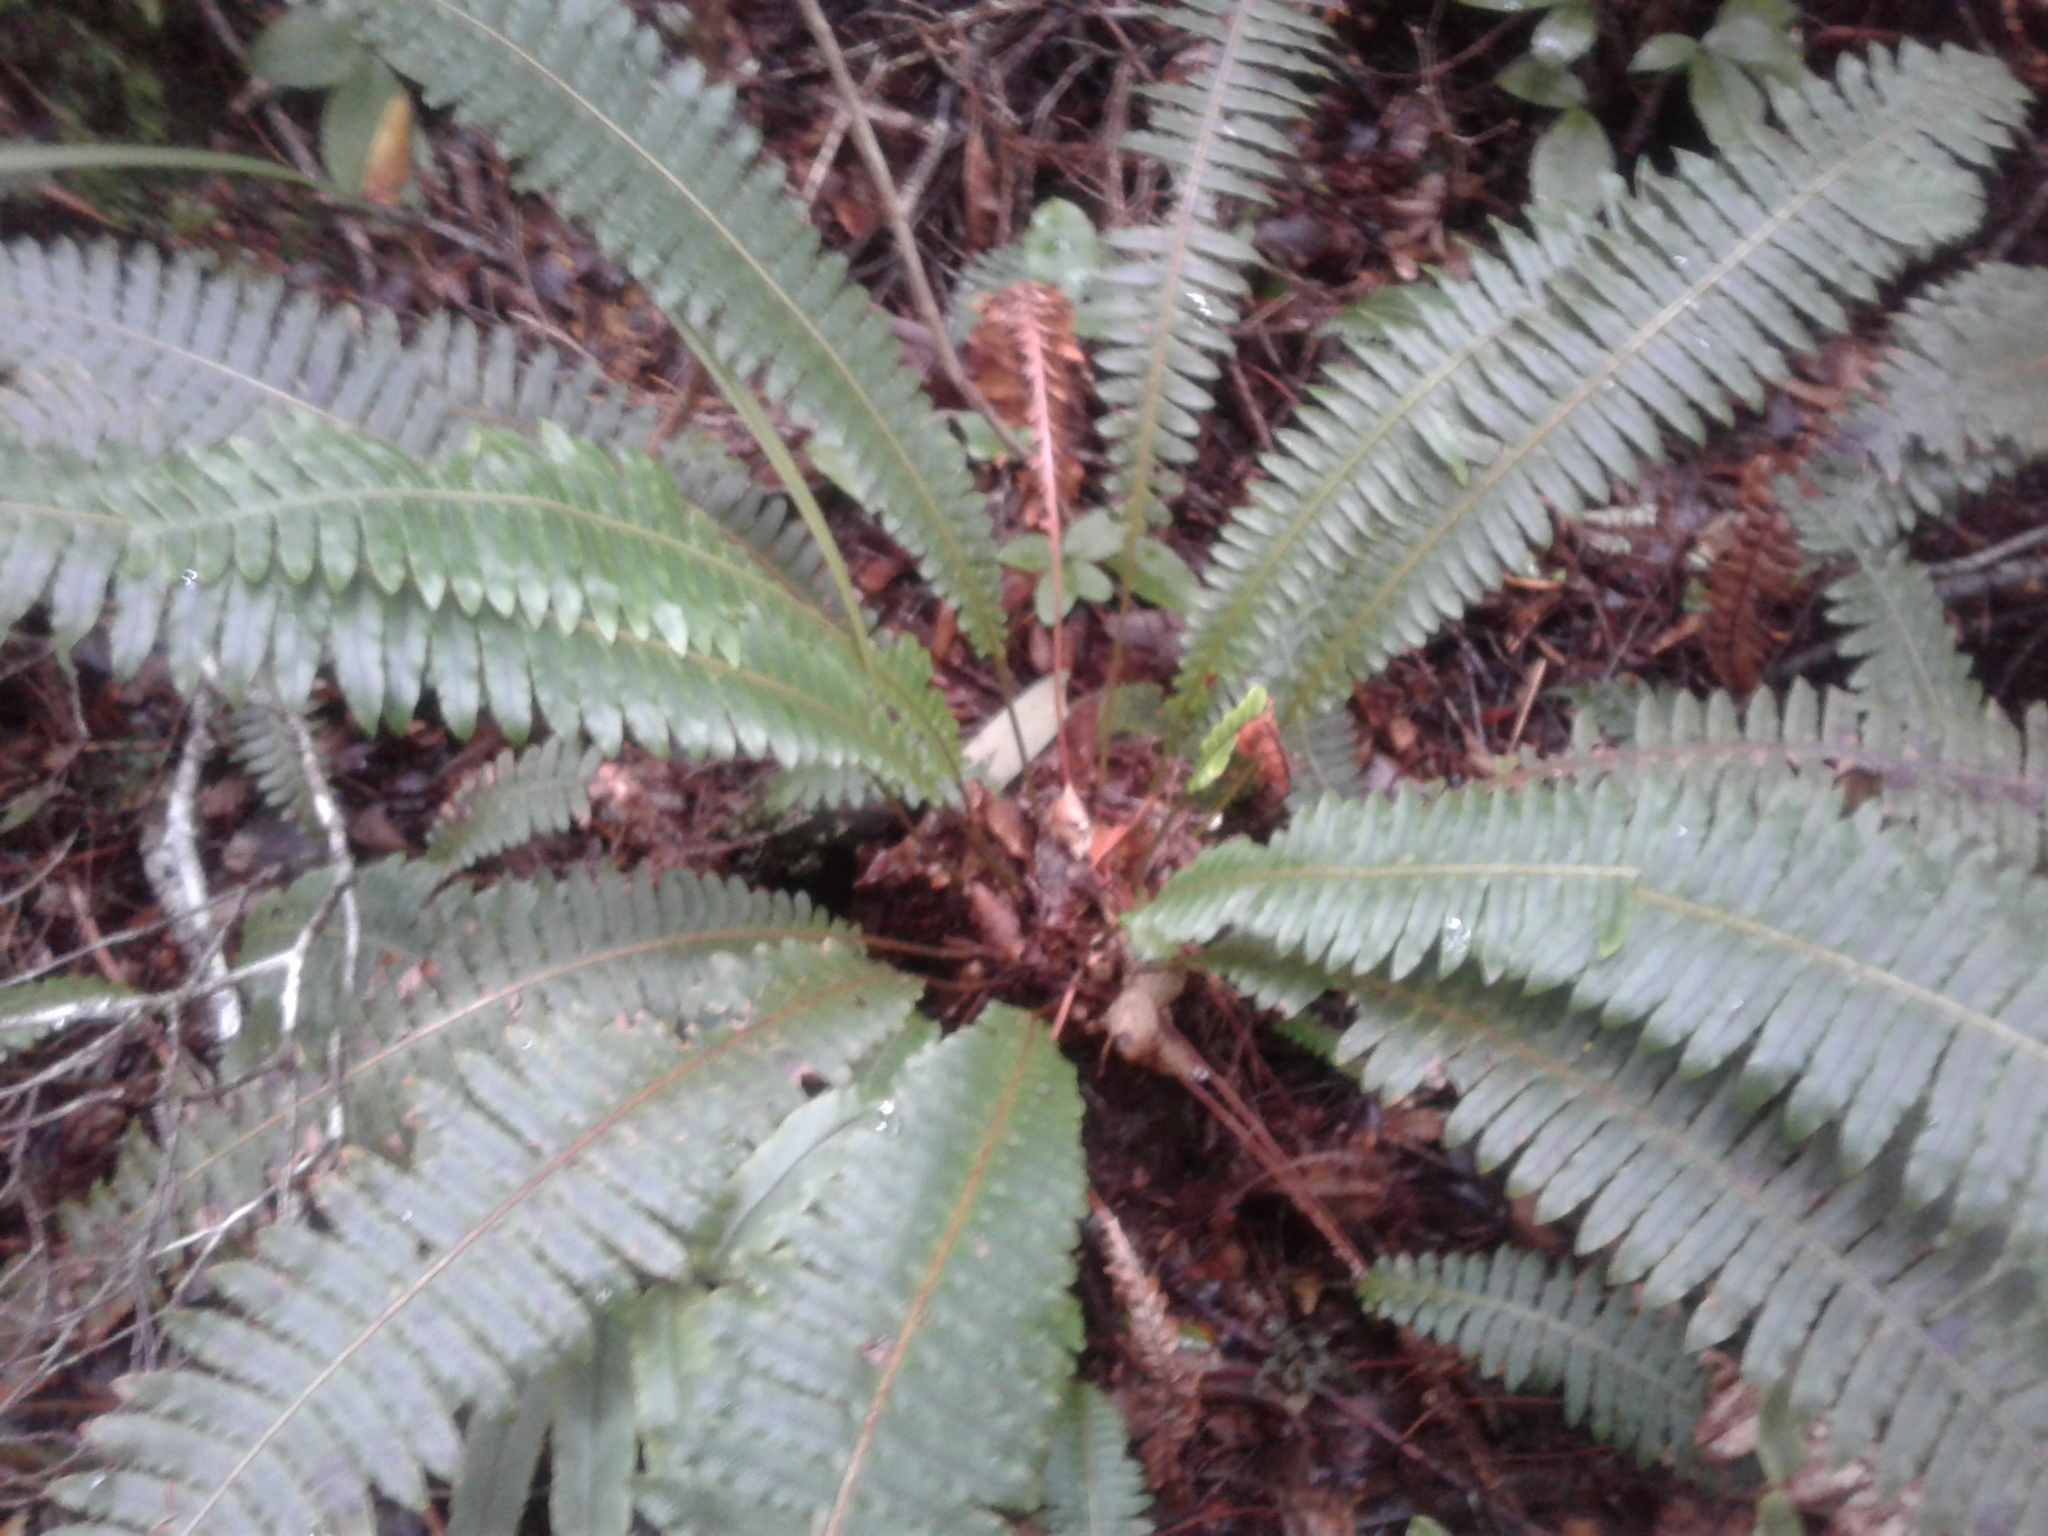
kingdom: Plantae
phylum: Tracheophyta
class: Polypodiopsida
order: Polypodiales
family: Blechnaceae
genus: Lomaria
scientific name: Lomaria discolor
